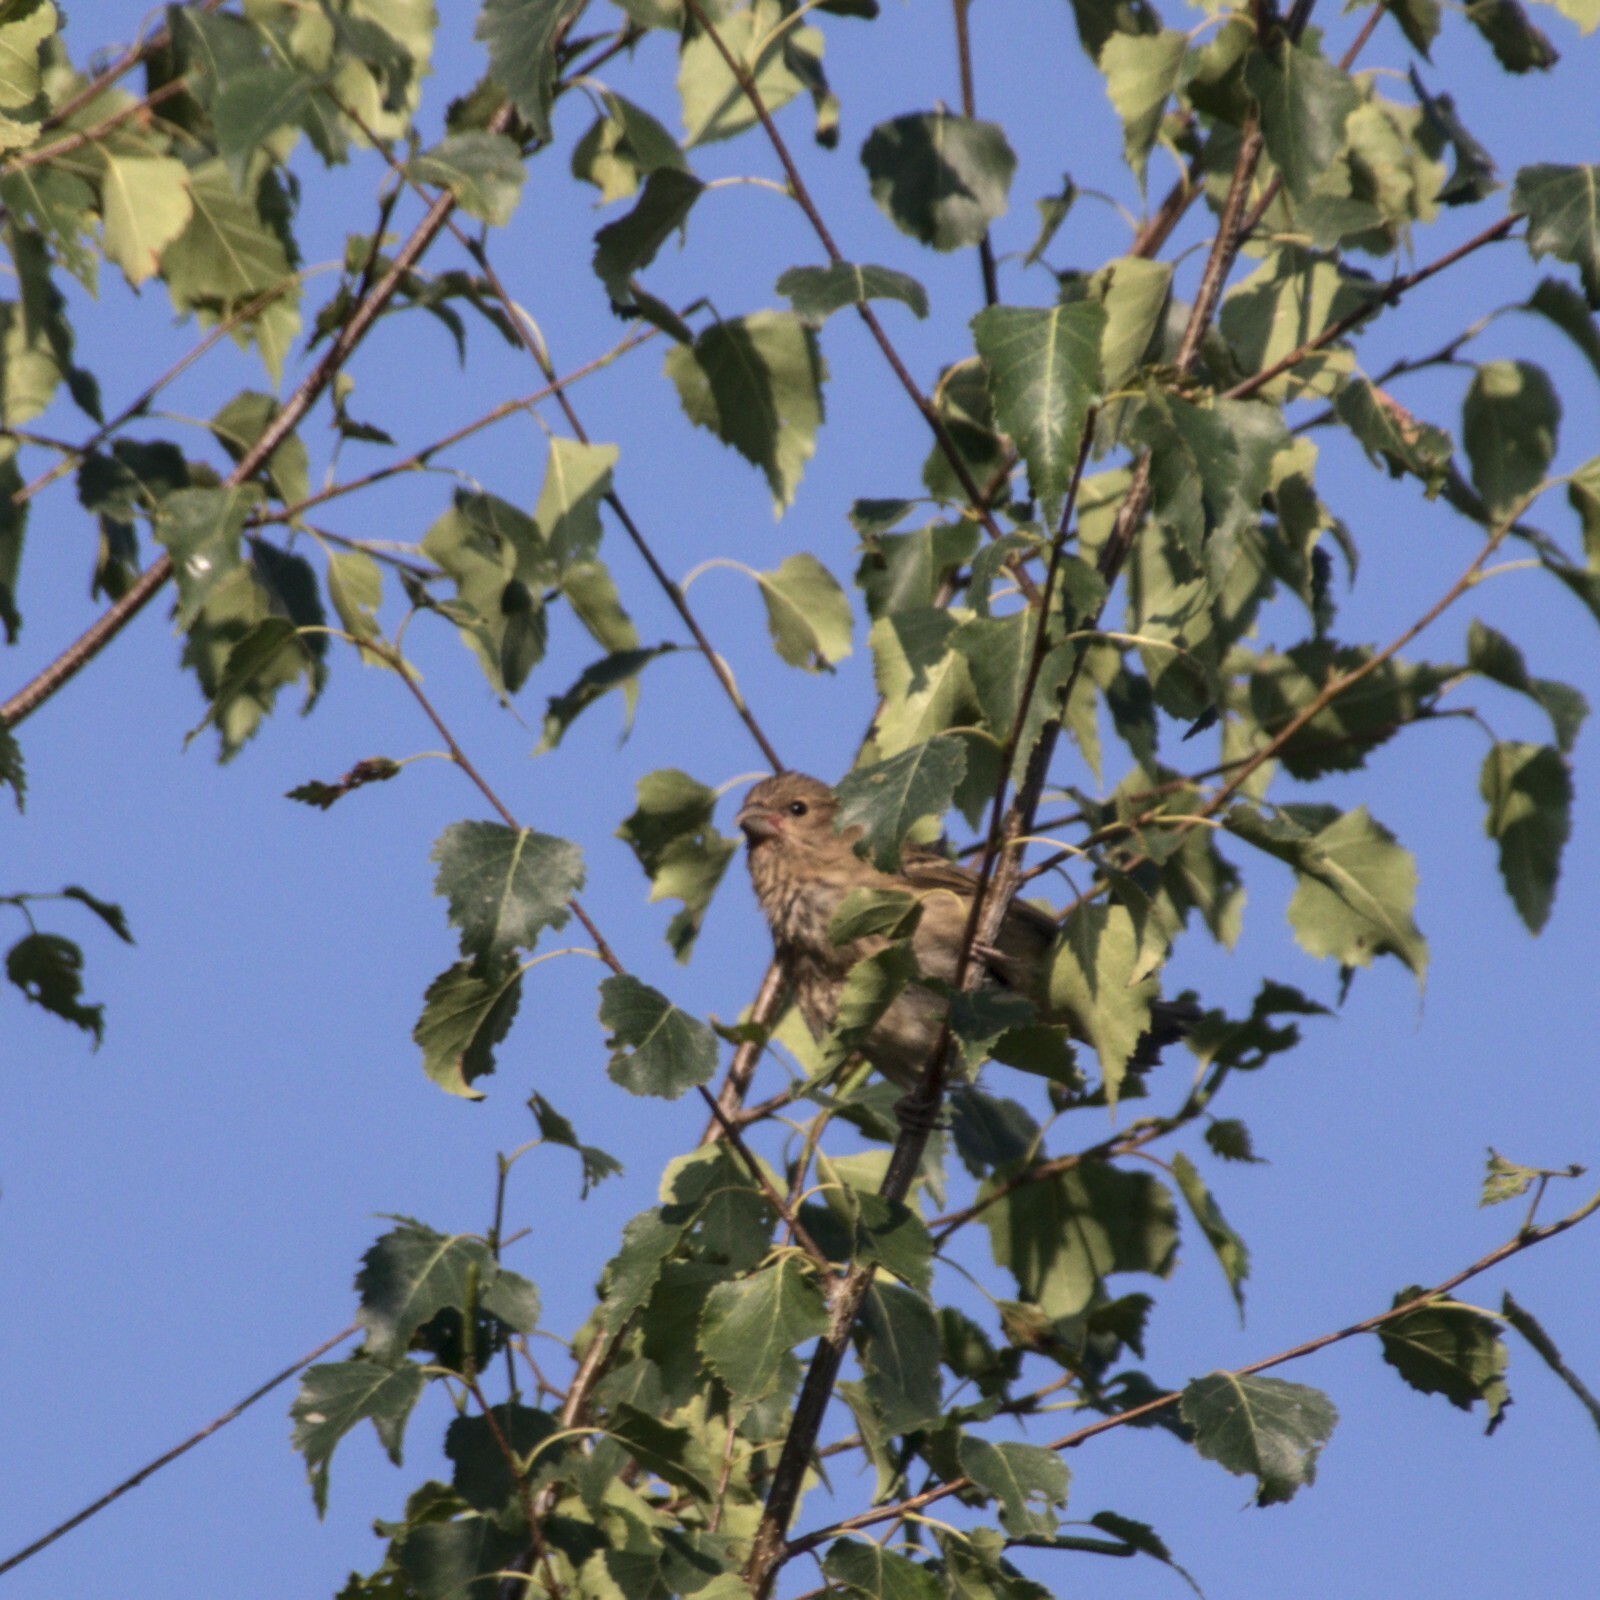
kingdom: Animalia
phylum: Chordata
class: Aves
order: Passeriformes
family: Fringillidae
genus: Carpodacus
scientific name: Carpodacus erythrinus
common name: Common rosefinch
